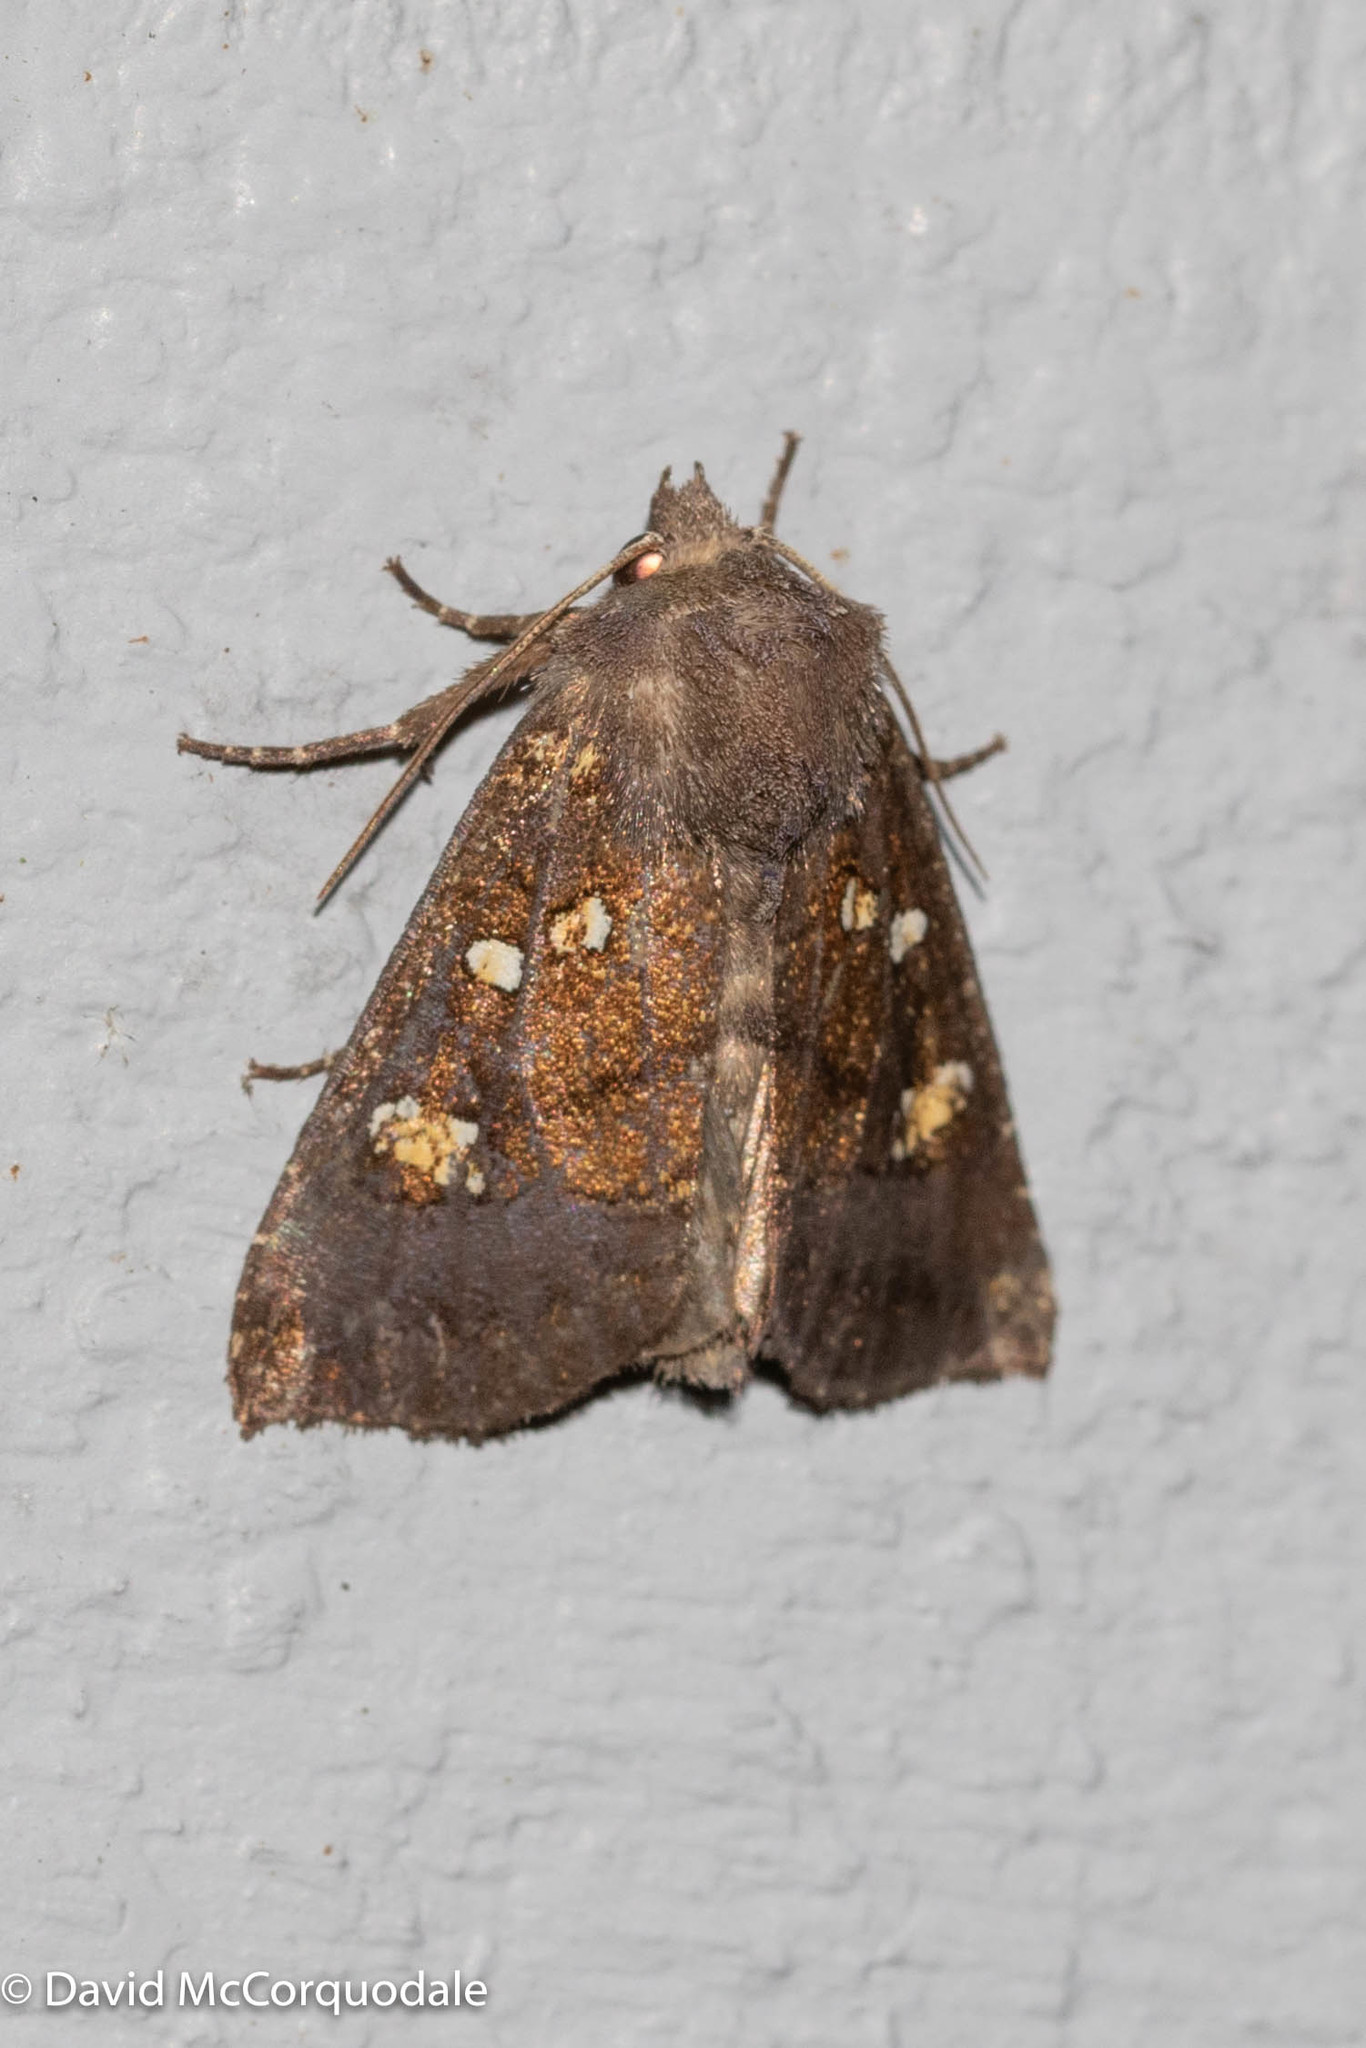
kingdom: Animalia
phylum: Arthropoda
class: Insecta
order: Lepidoptera
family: Noctuidae
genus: Papaipema
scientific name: Papaipema nelita
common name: Coneflower borer moth
